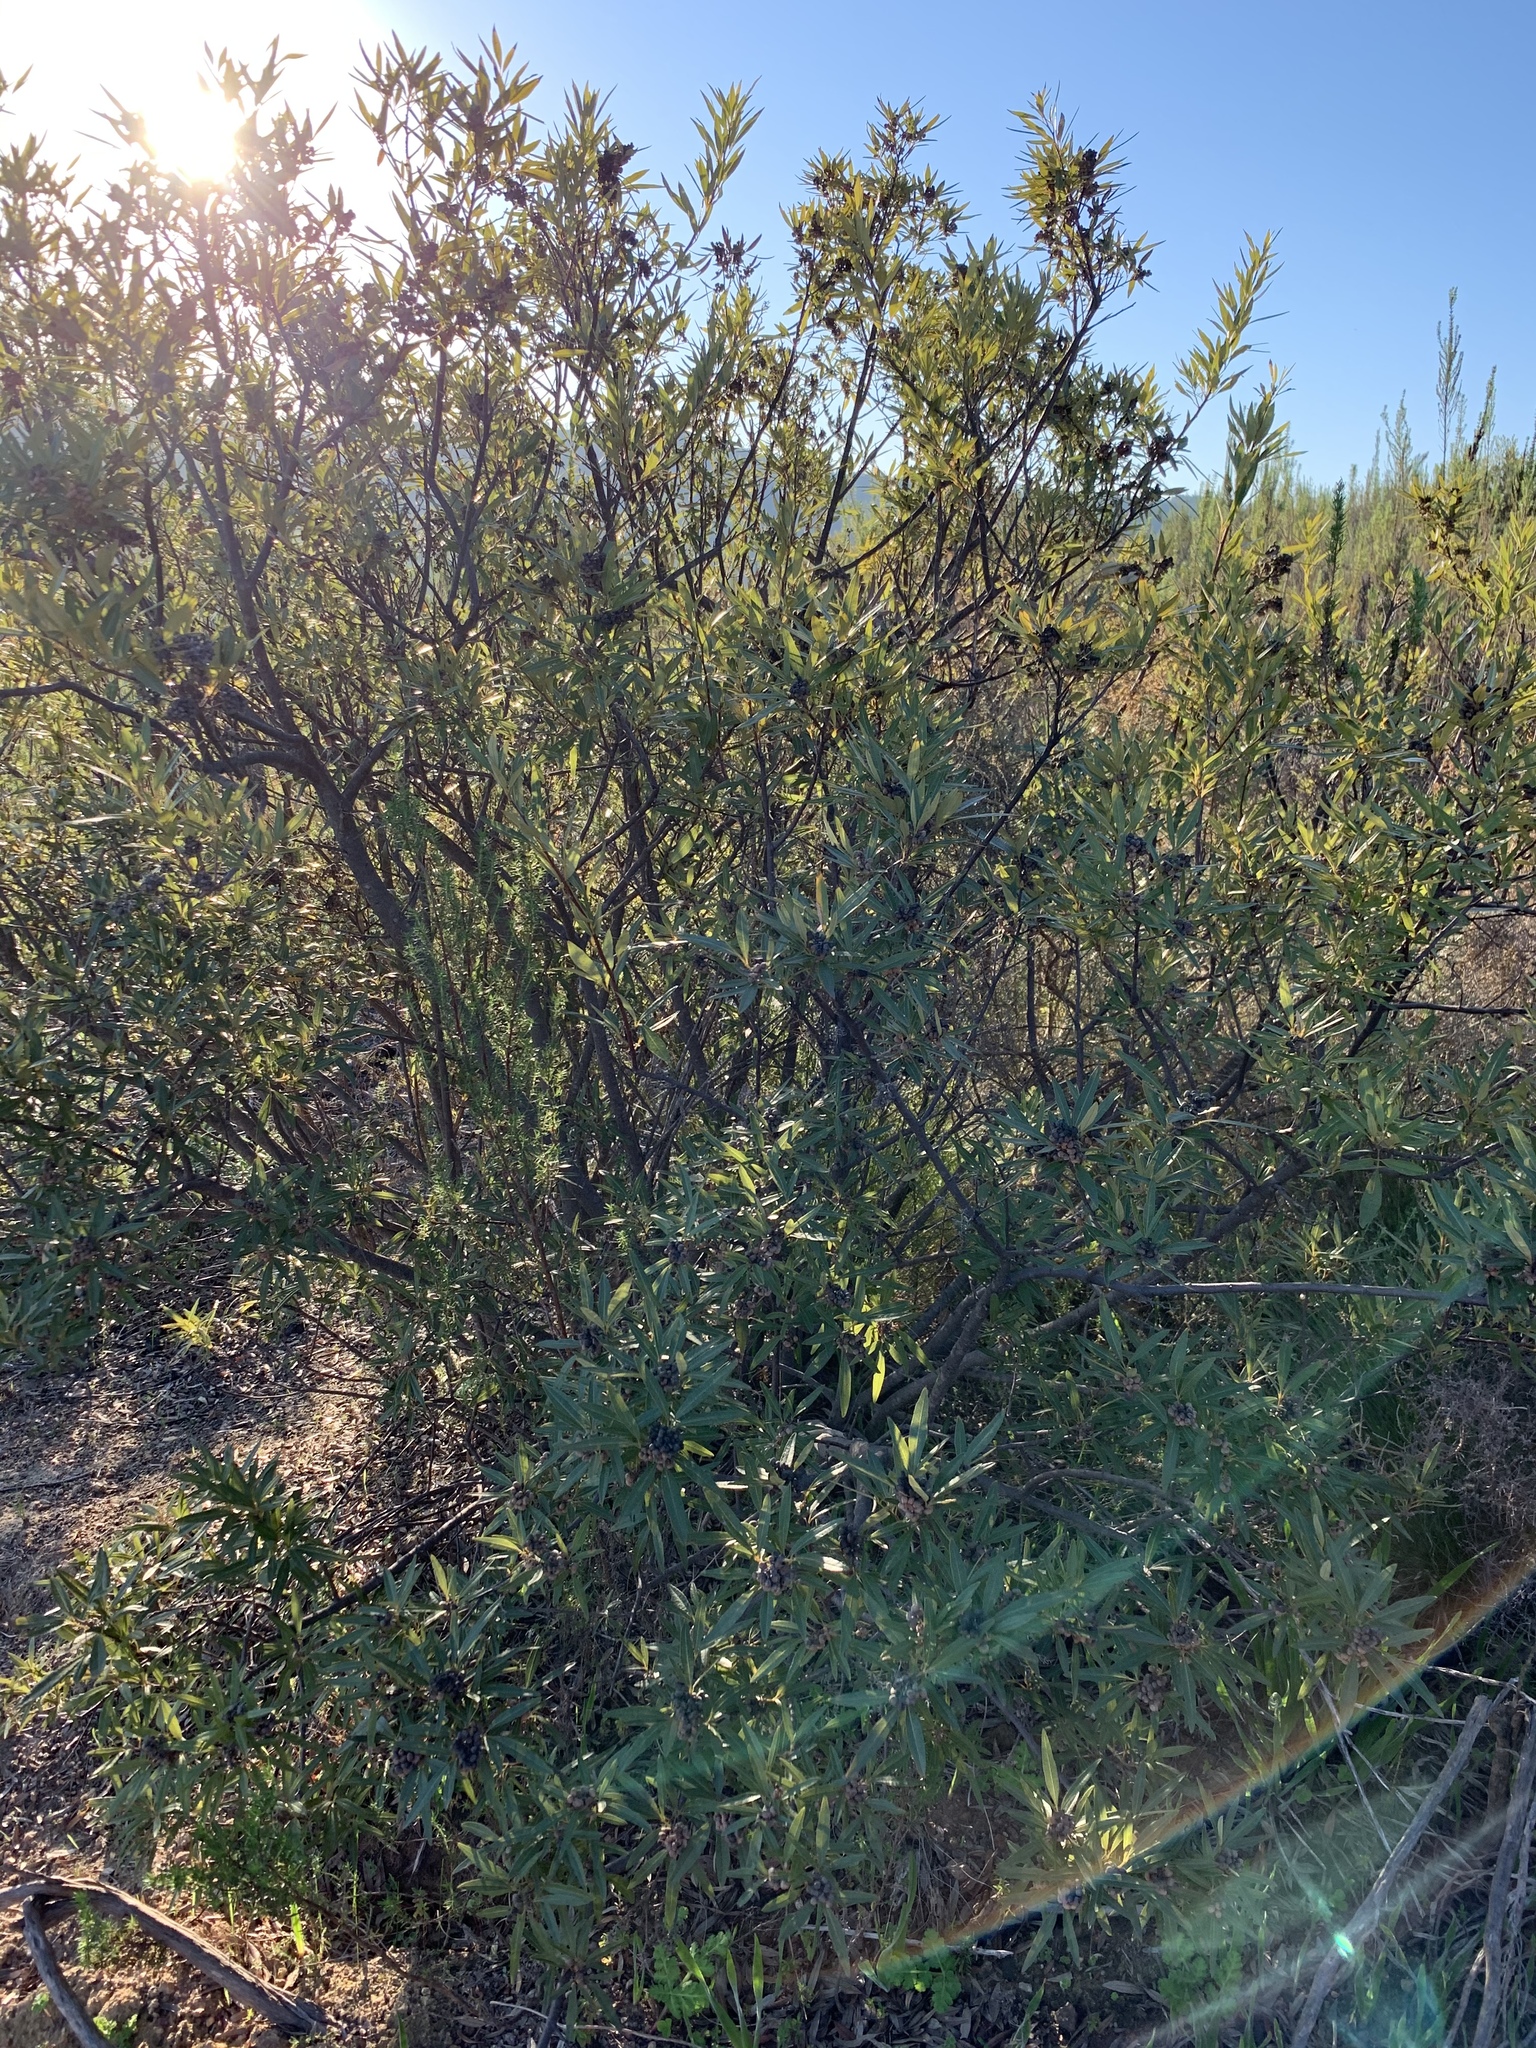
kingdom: Plantae
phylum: Tracheophyta
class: Magnoliopsida
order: Sapindales
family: Anacardiaceae
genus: Searsia
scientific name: Searsia angustifolia
